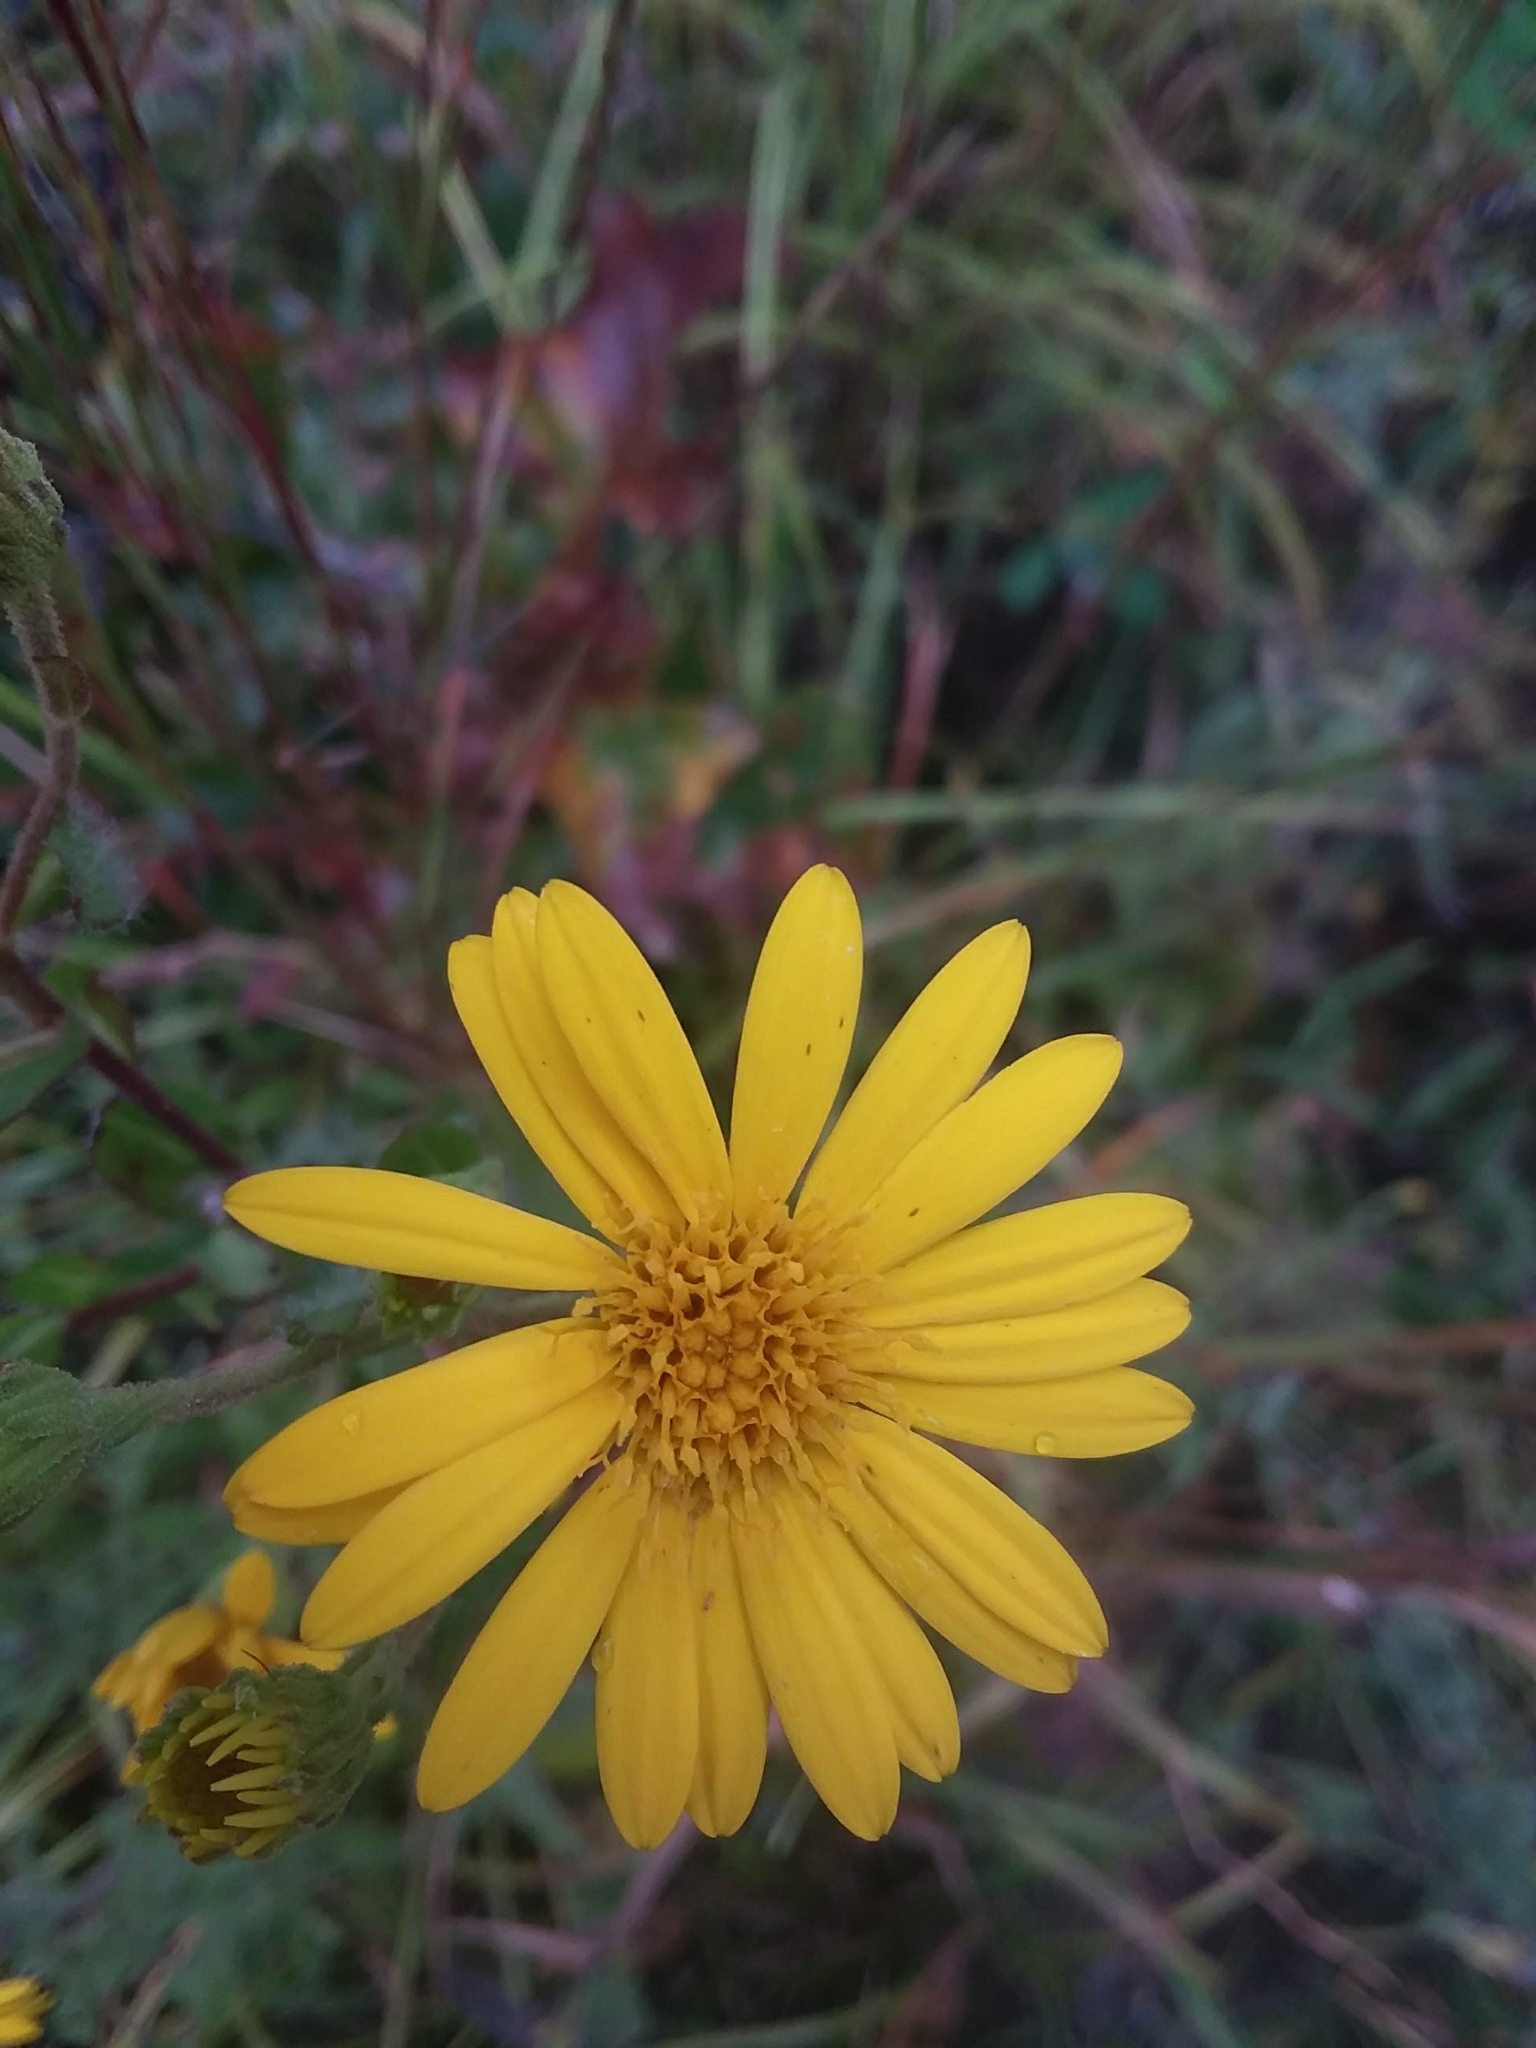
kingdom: Plantae
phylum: Tracheophyta
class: Magnoliopsida
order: Asterales
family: Asteraceae
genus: Chrysopsis
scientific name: Chrysopsis mariana
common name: Maryland golden-aster
